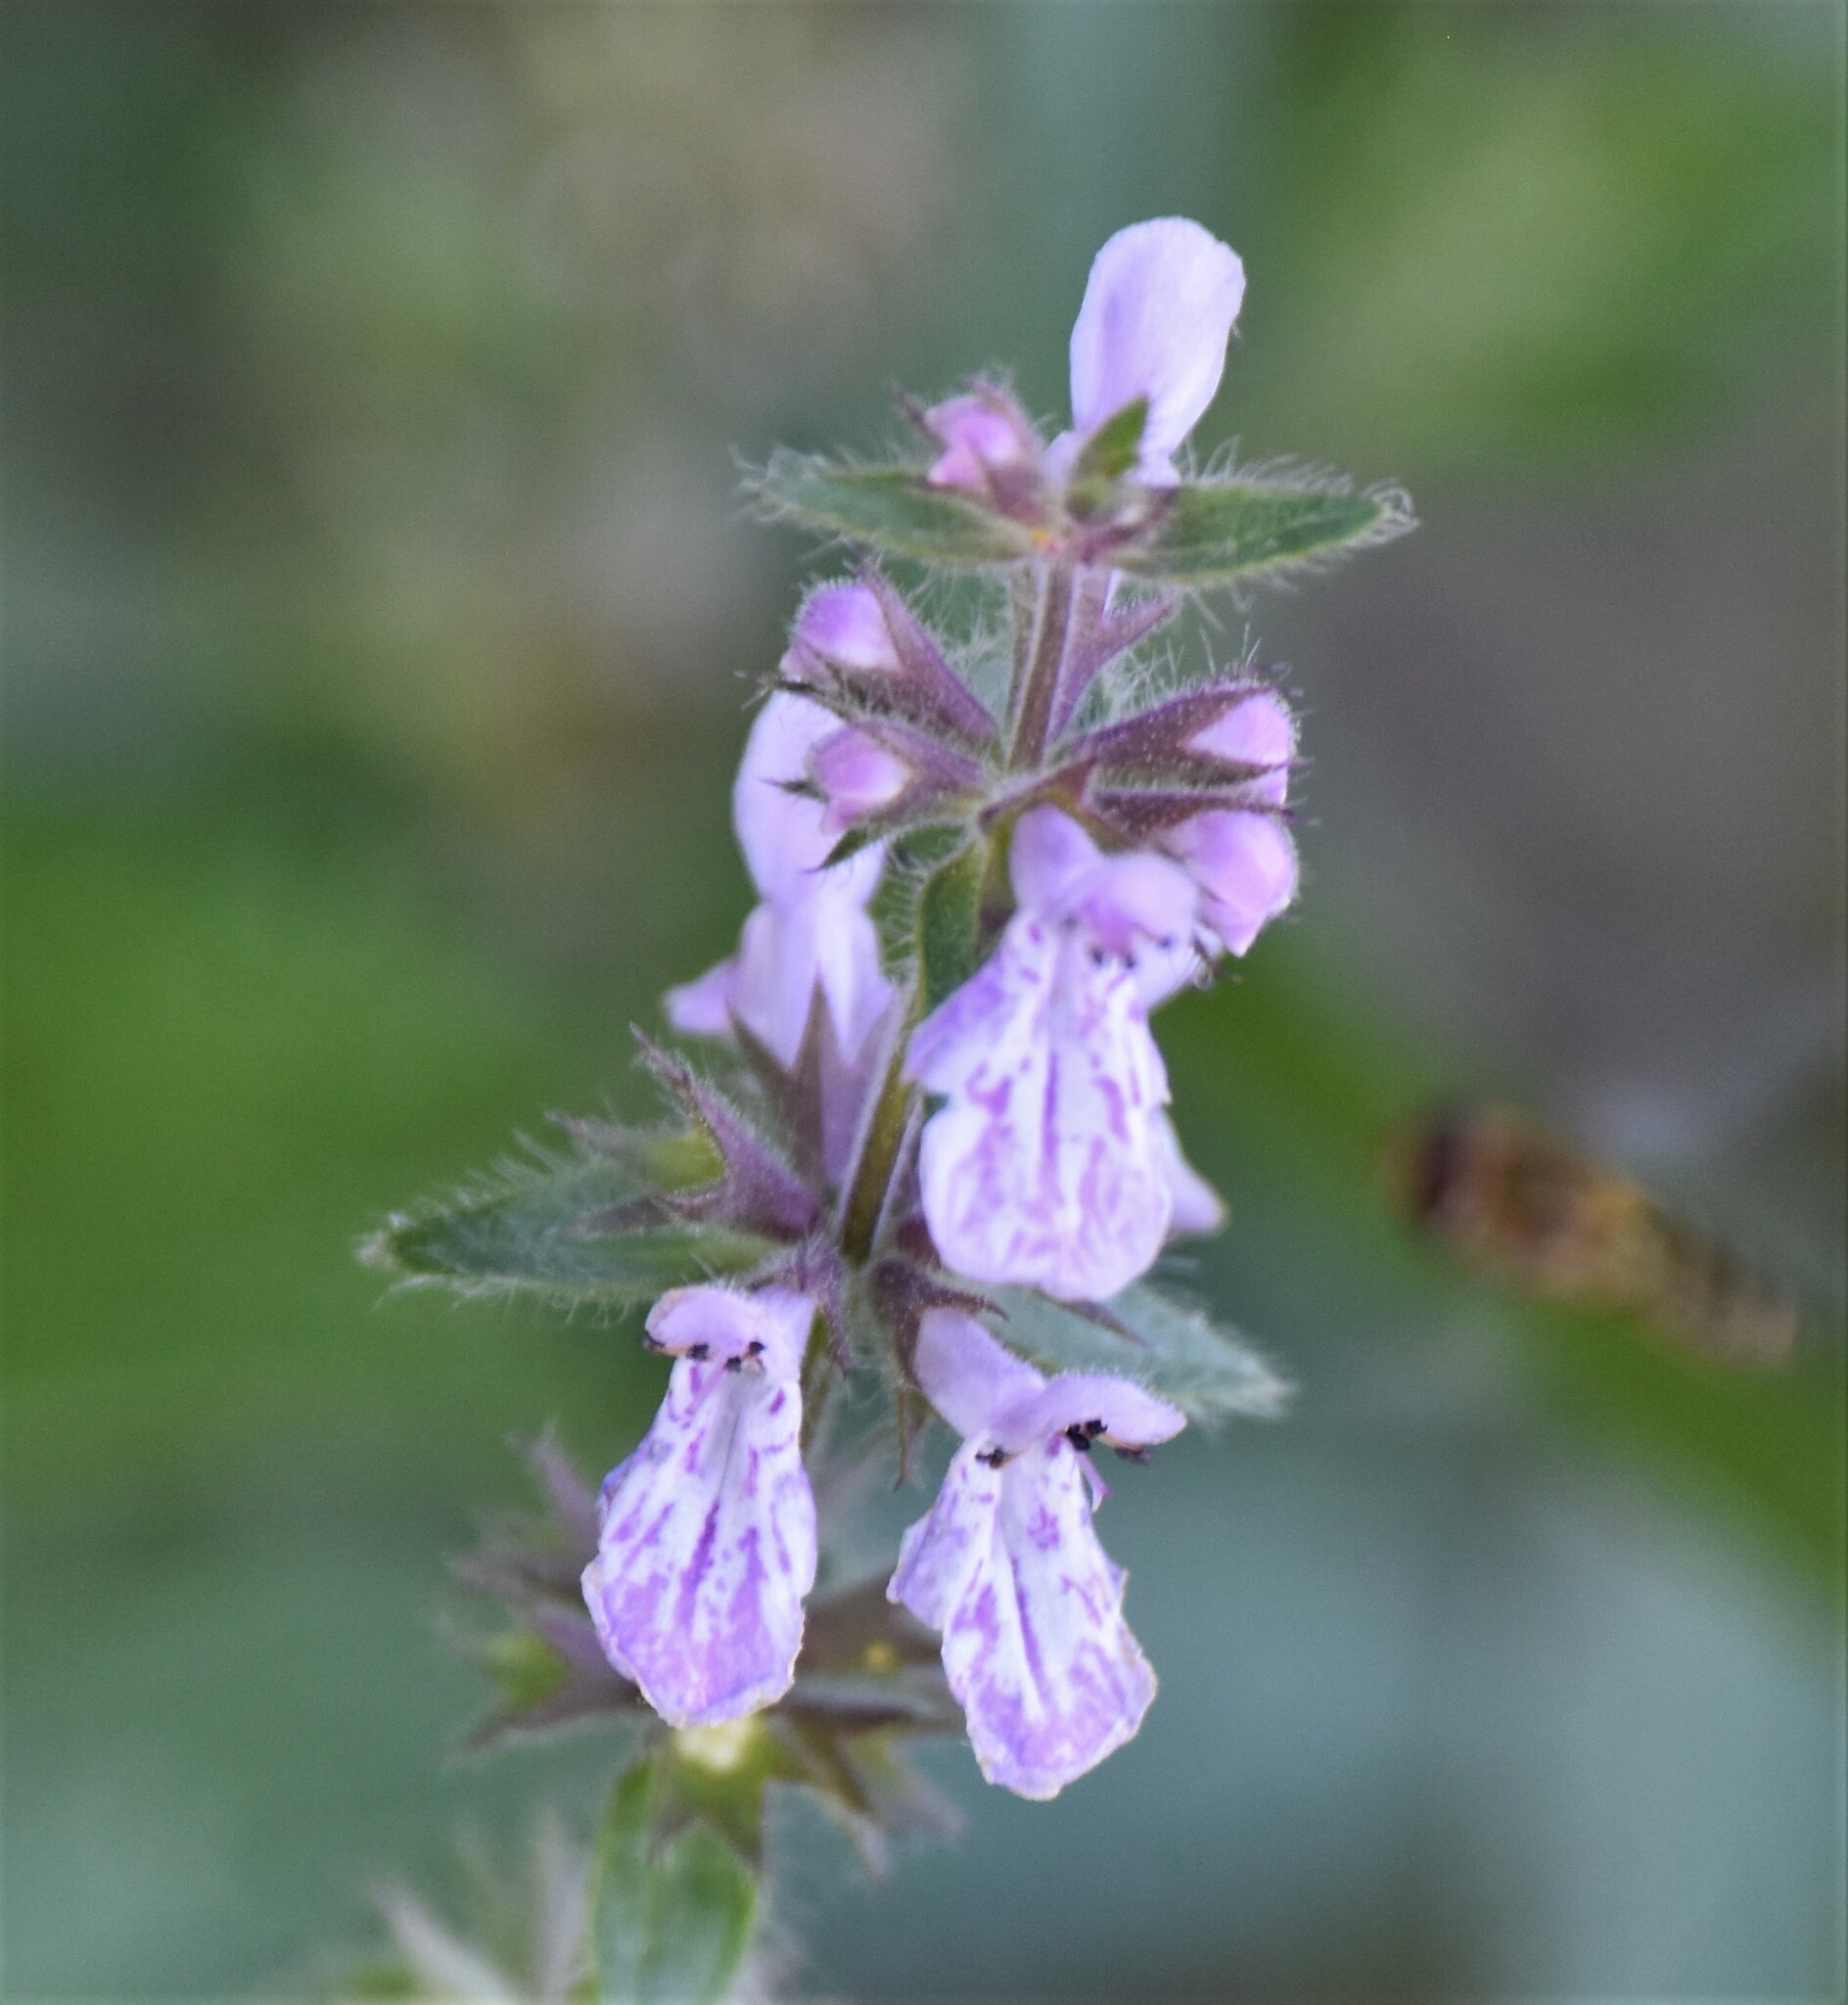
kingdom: Plantae
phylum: Tracheophyta
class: Magnoliopsida
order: Lamiales
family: Lamiaceae
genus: Stachys
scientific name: Stachys pilosa
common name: Hairy hedge-nettle
